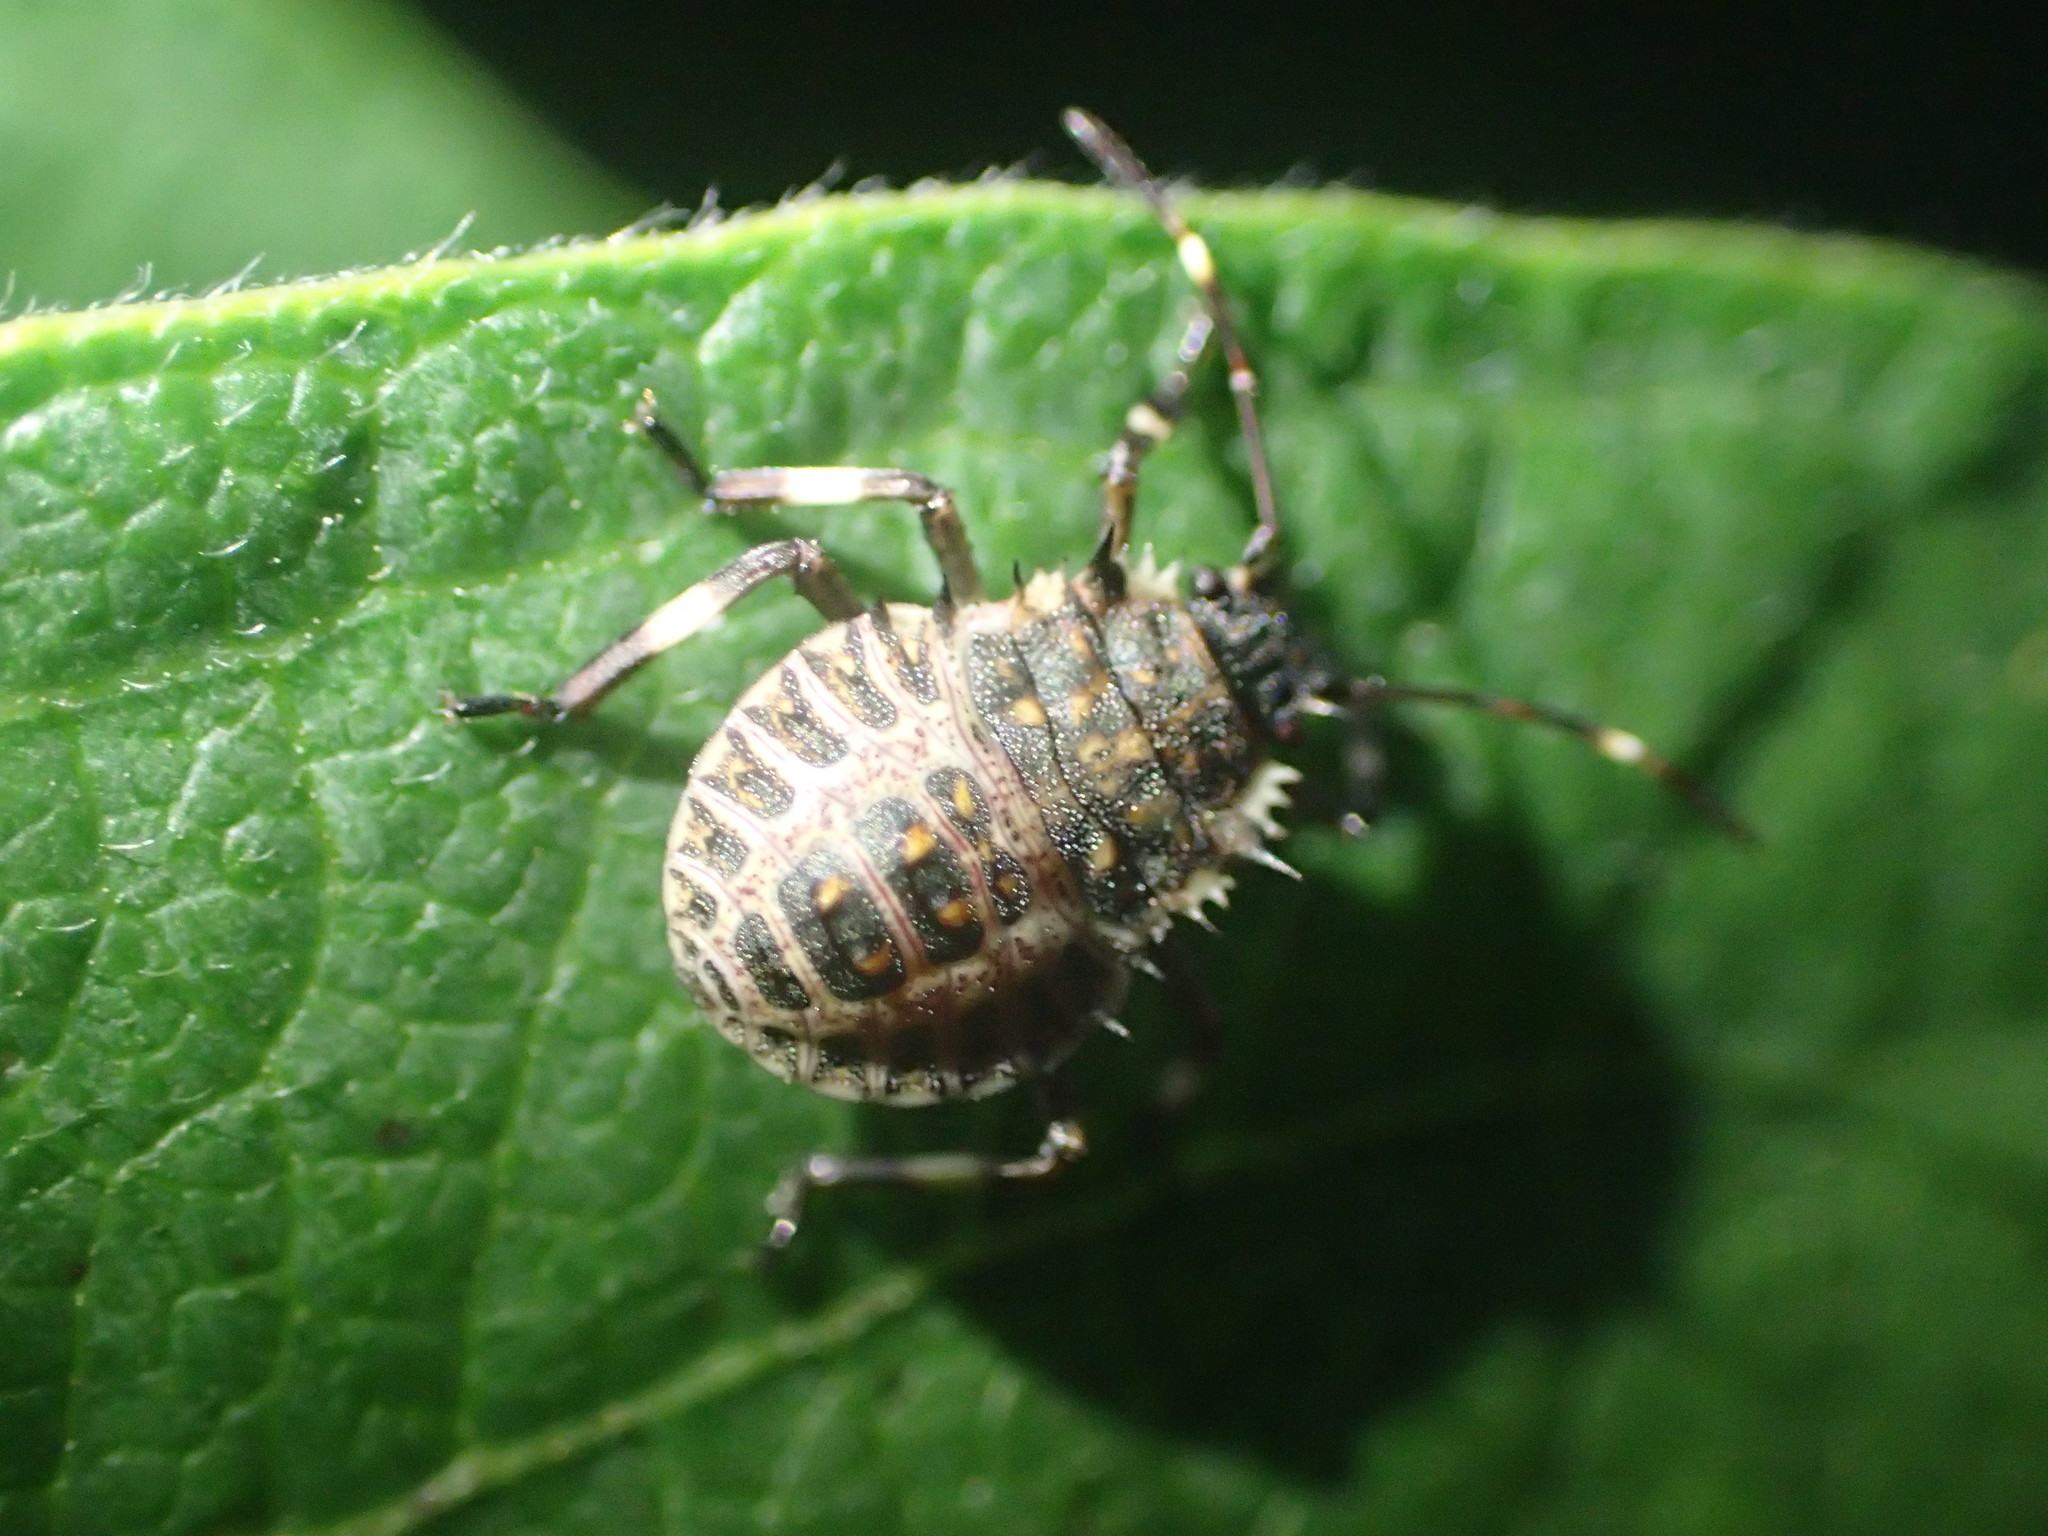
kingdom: Animalia
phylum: Arthropoda
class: Insecta
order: Hemiptera
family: Pentatomidae
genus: Halyomorpha
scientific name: Halyomorpha halys
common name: Brown marmorated stink bug
